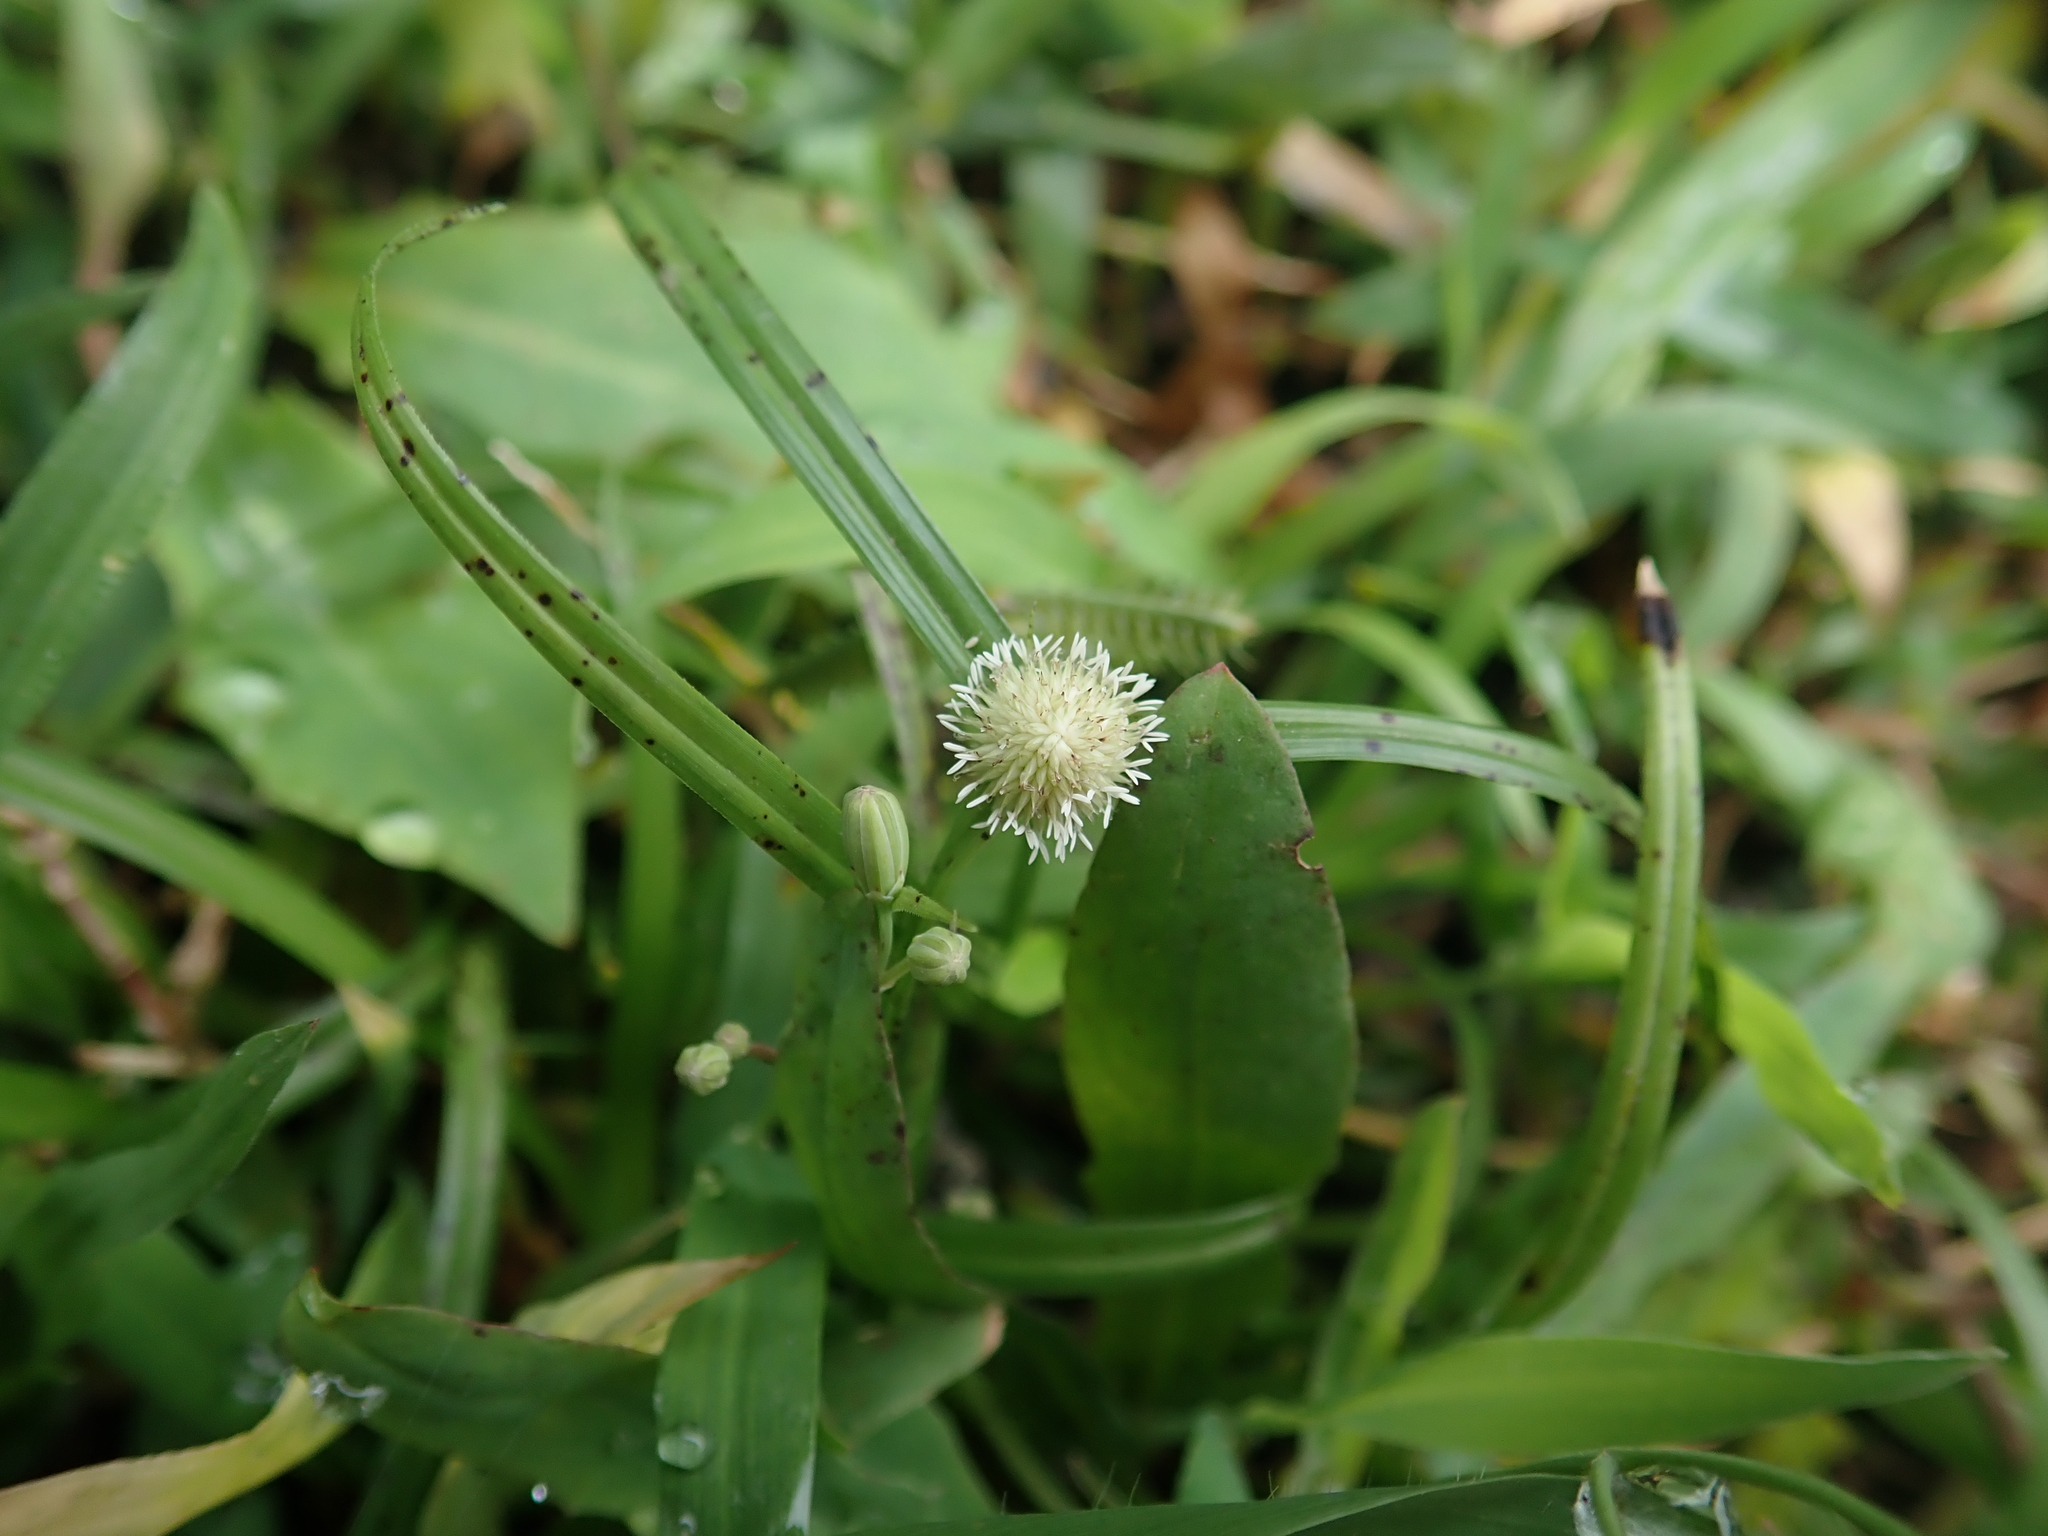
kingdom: Plantae
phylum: Tracheophyta
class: Liliopsida
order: Poales
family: Cyperaceae
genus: Cyperus
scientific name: Cyperus mindorensis
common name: Flatsedge
